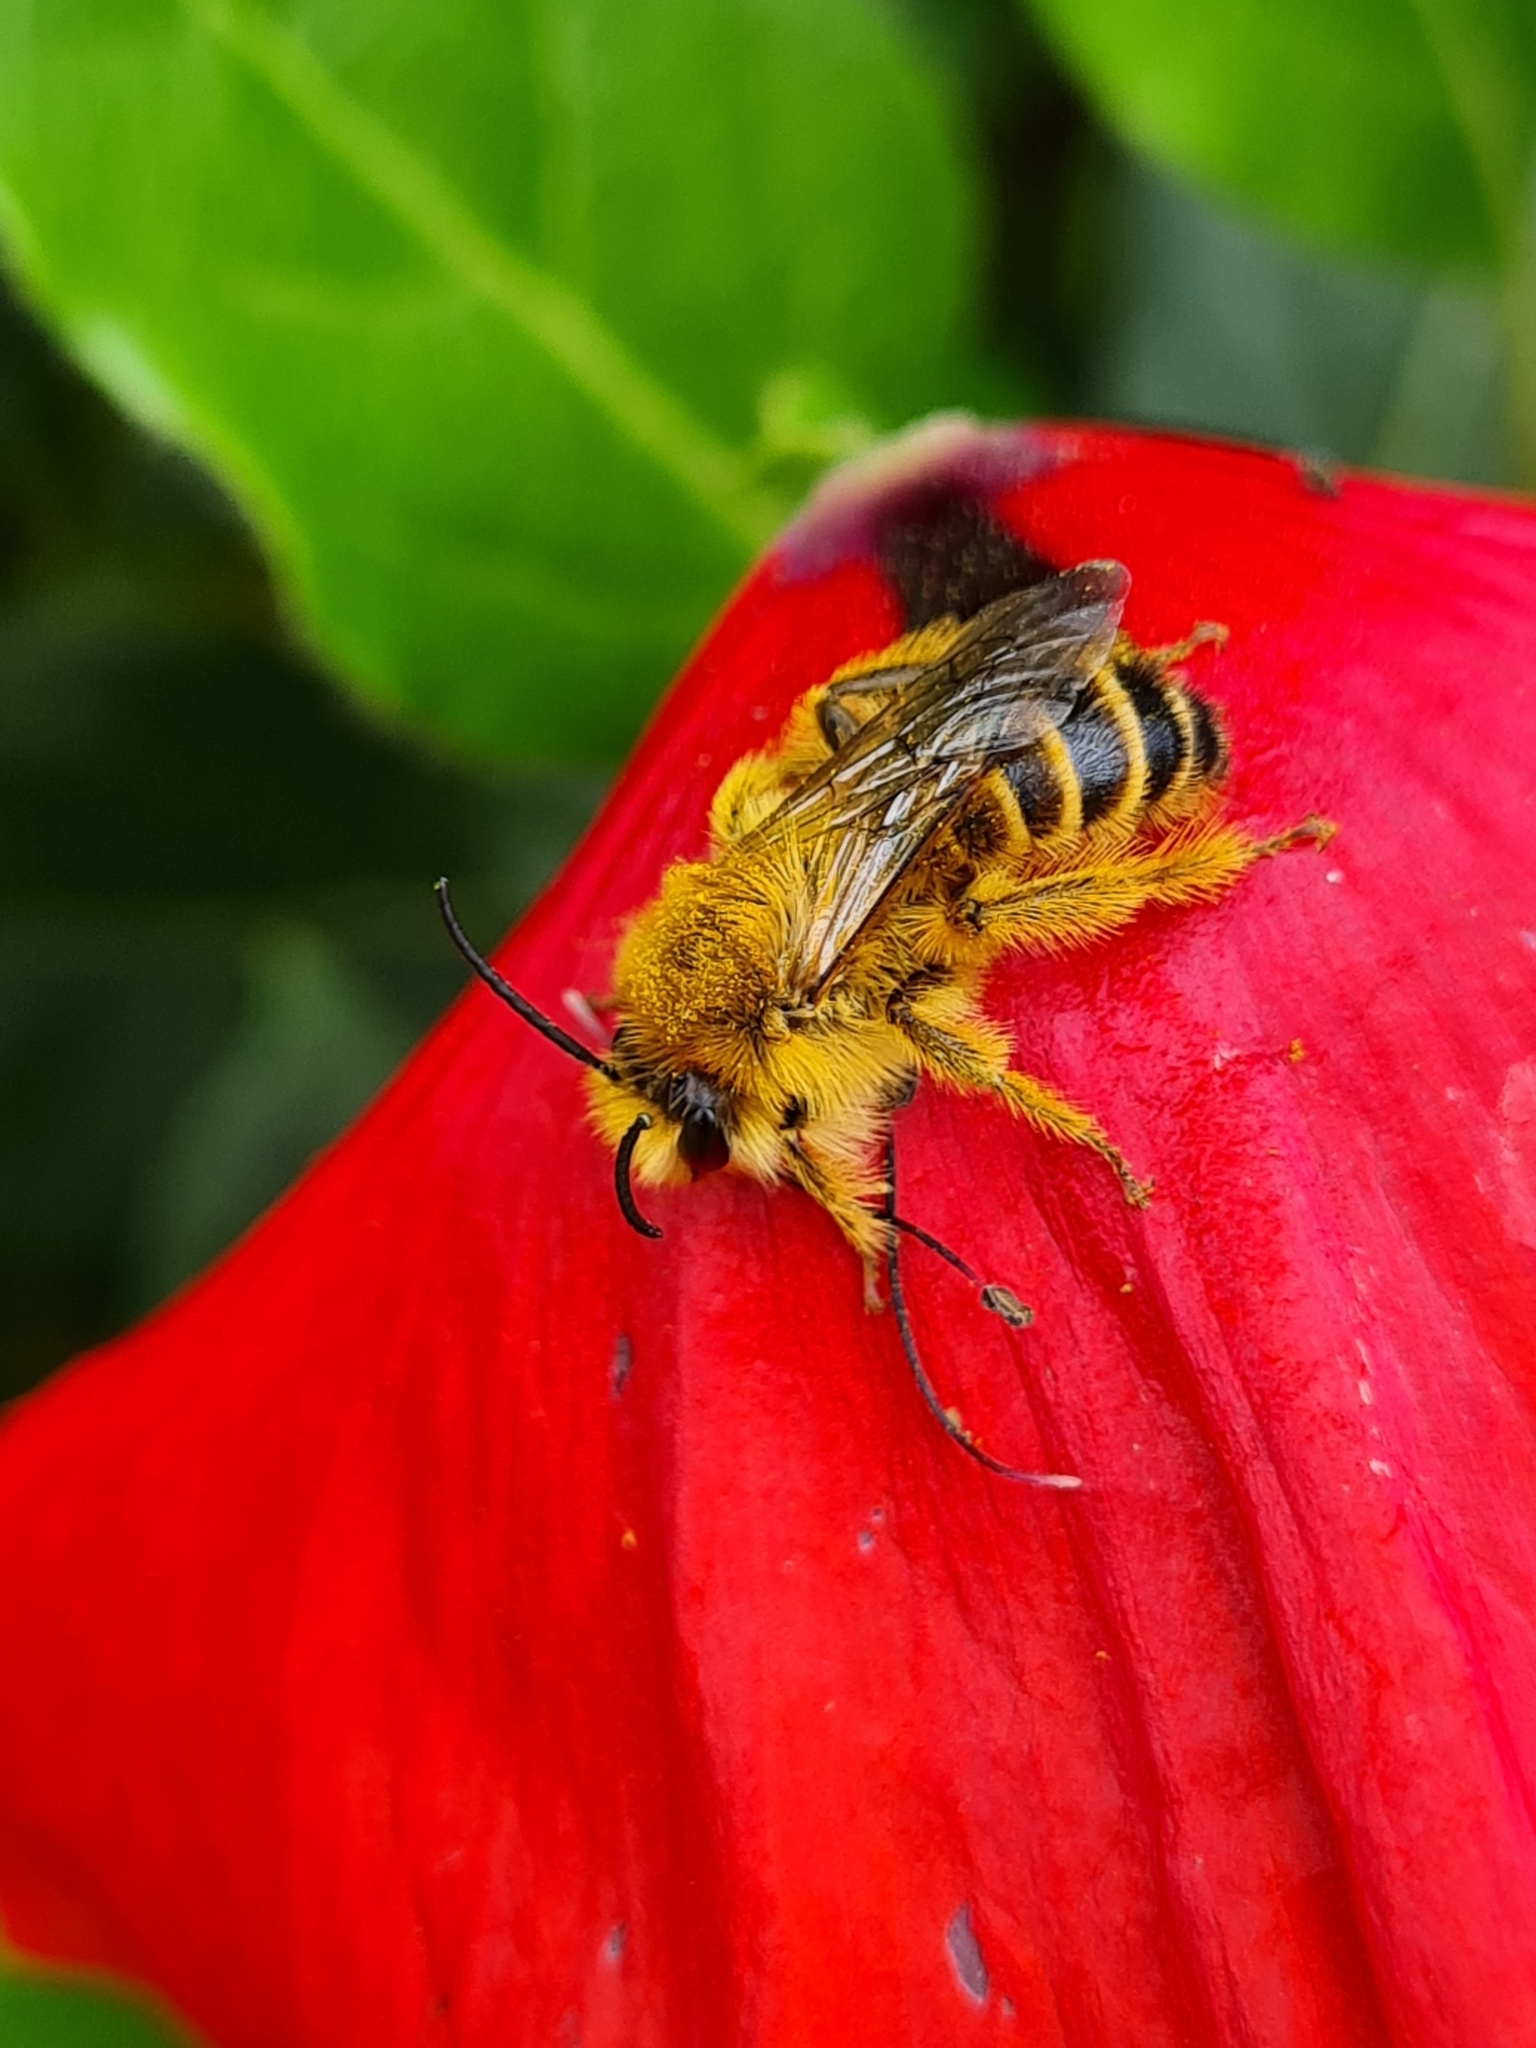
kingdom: Animalia
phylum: Arthropoda
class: Insecta
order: Hymenoptera
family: Melittidae
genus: Dasypoda
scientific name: Dasypoda hirtipes
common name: Pantaloon bee
